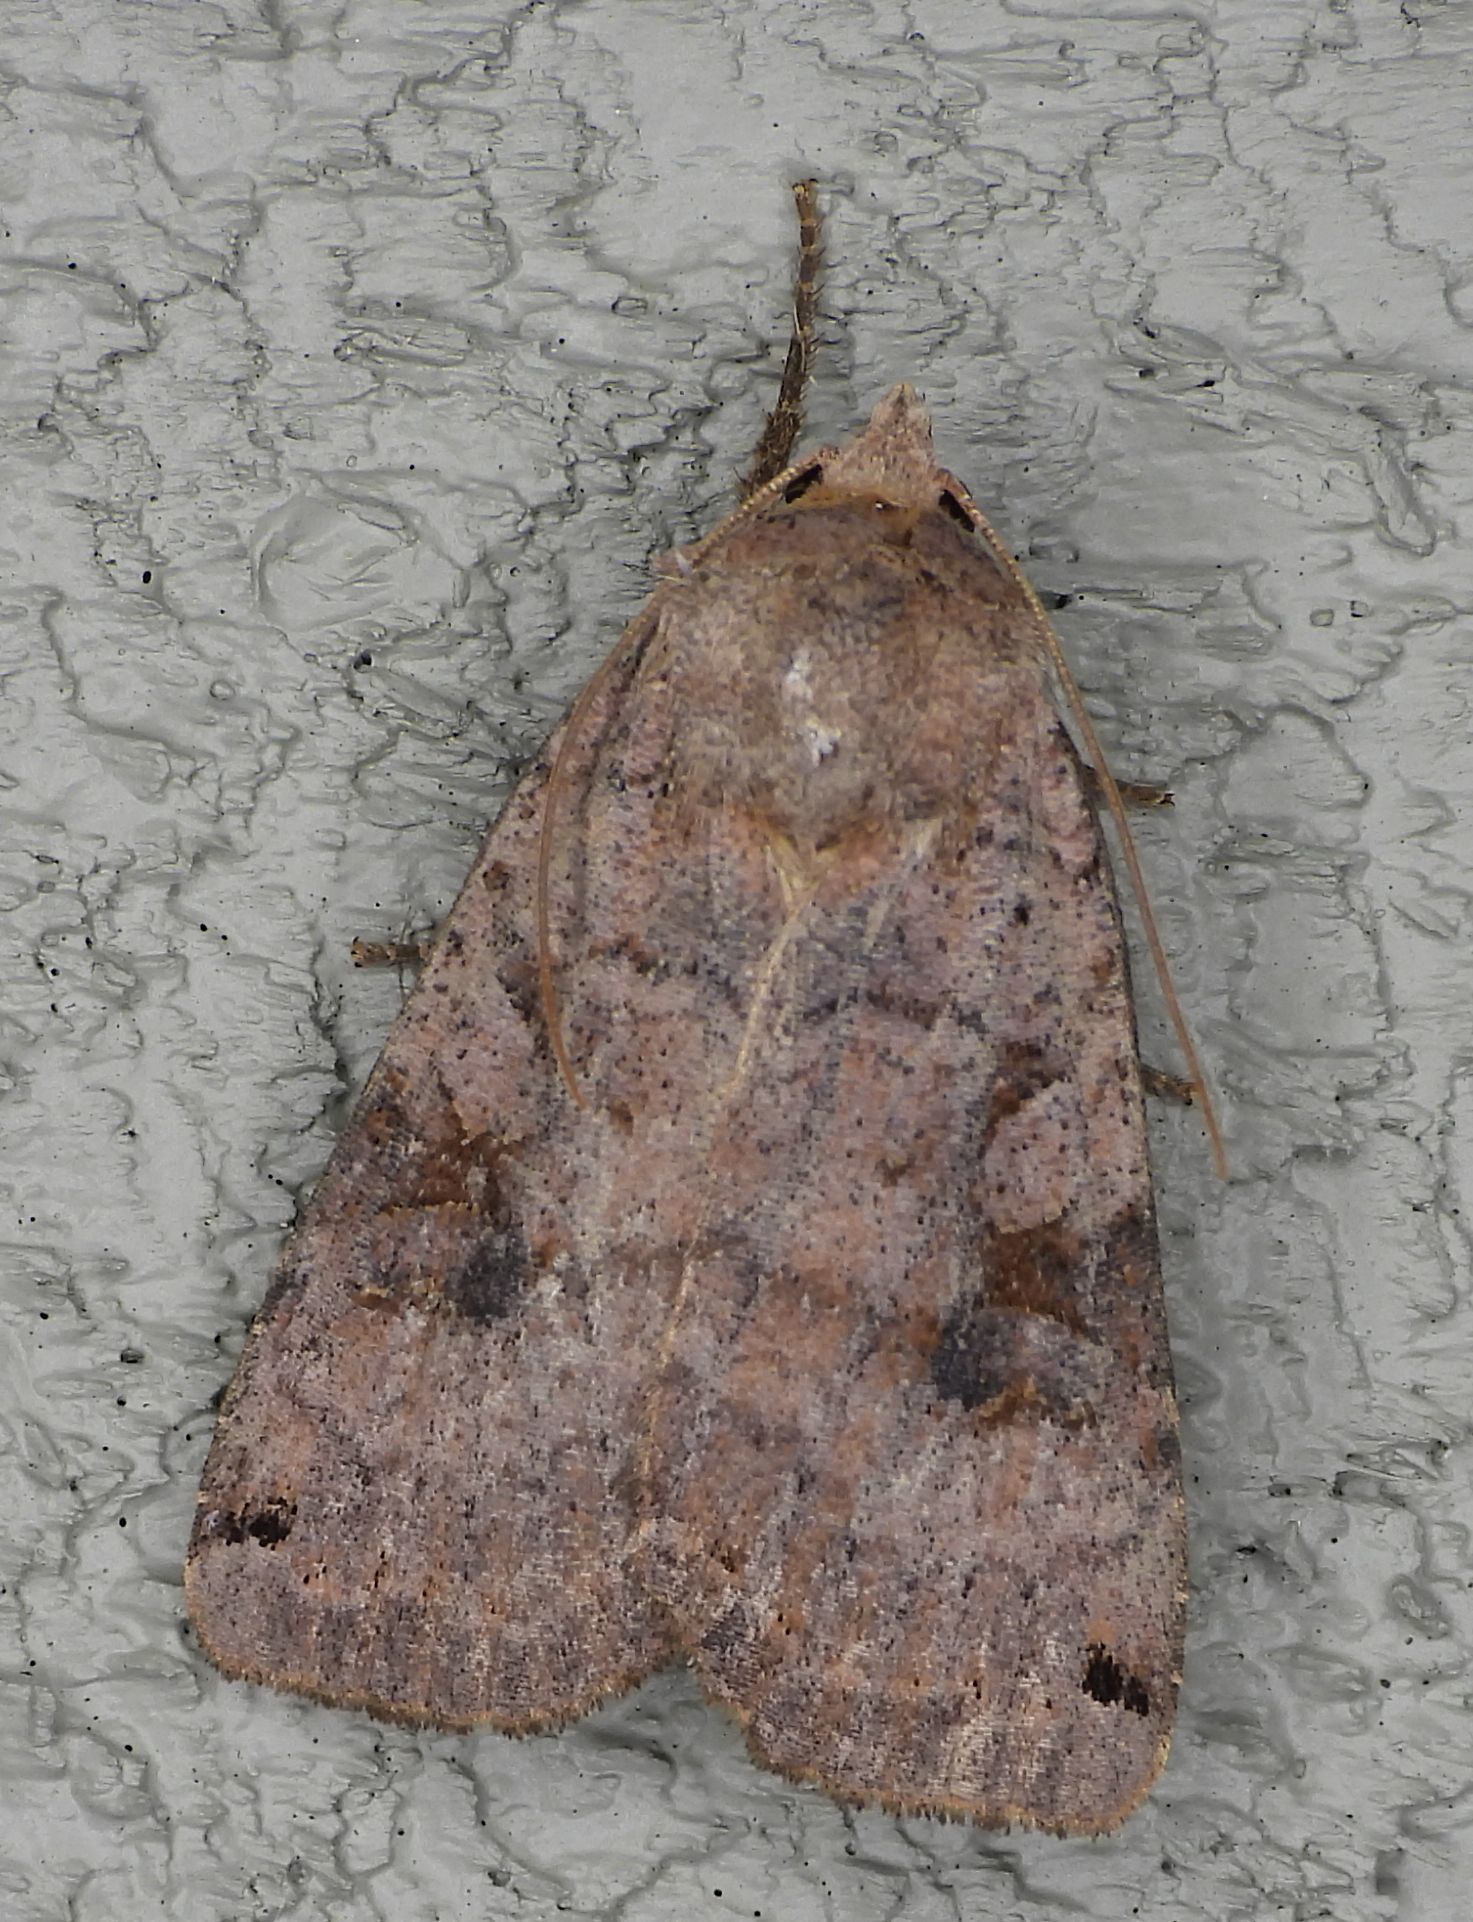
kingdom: Animalia
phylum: Arthropoda
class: Insecta
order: Lepidoptera
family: Noctuidae
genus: Xestia
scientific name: Xestia smithii
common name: Smith's dart
